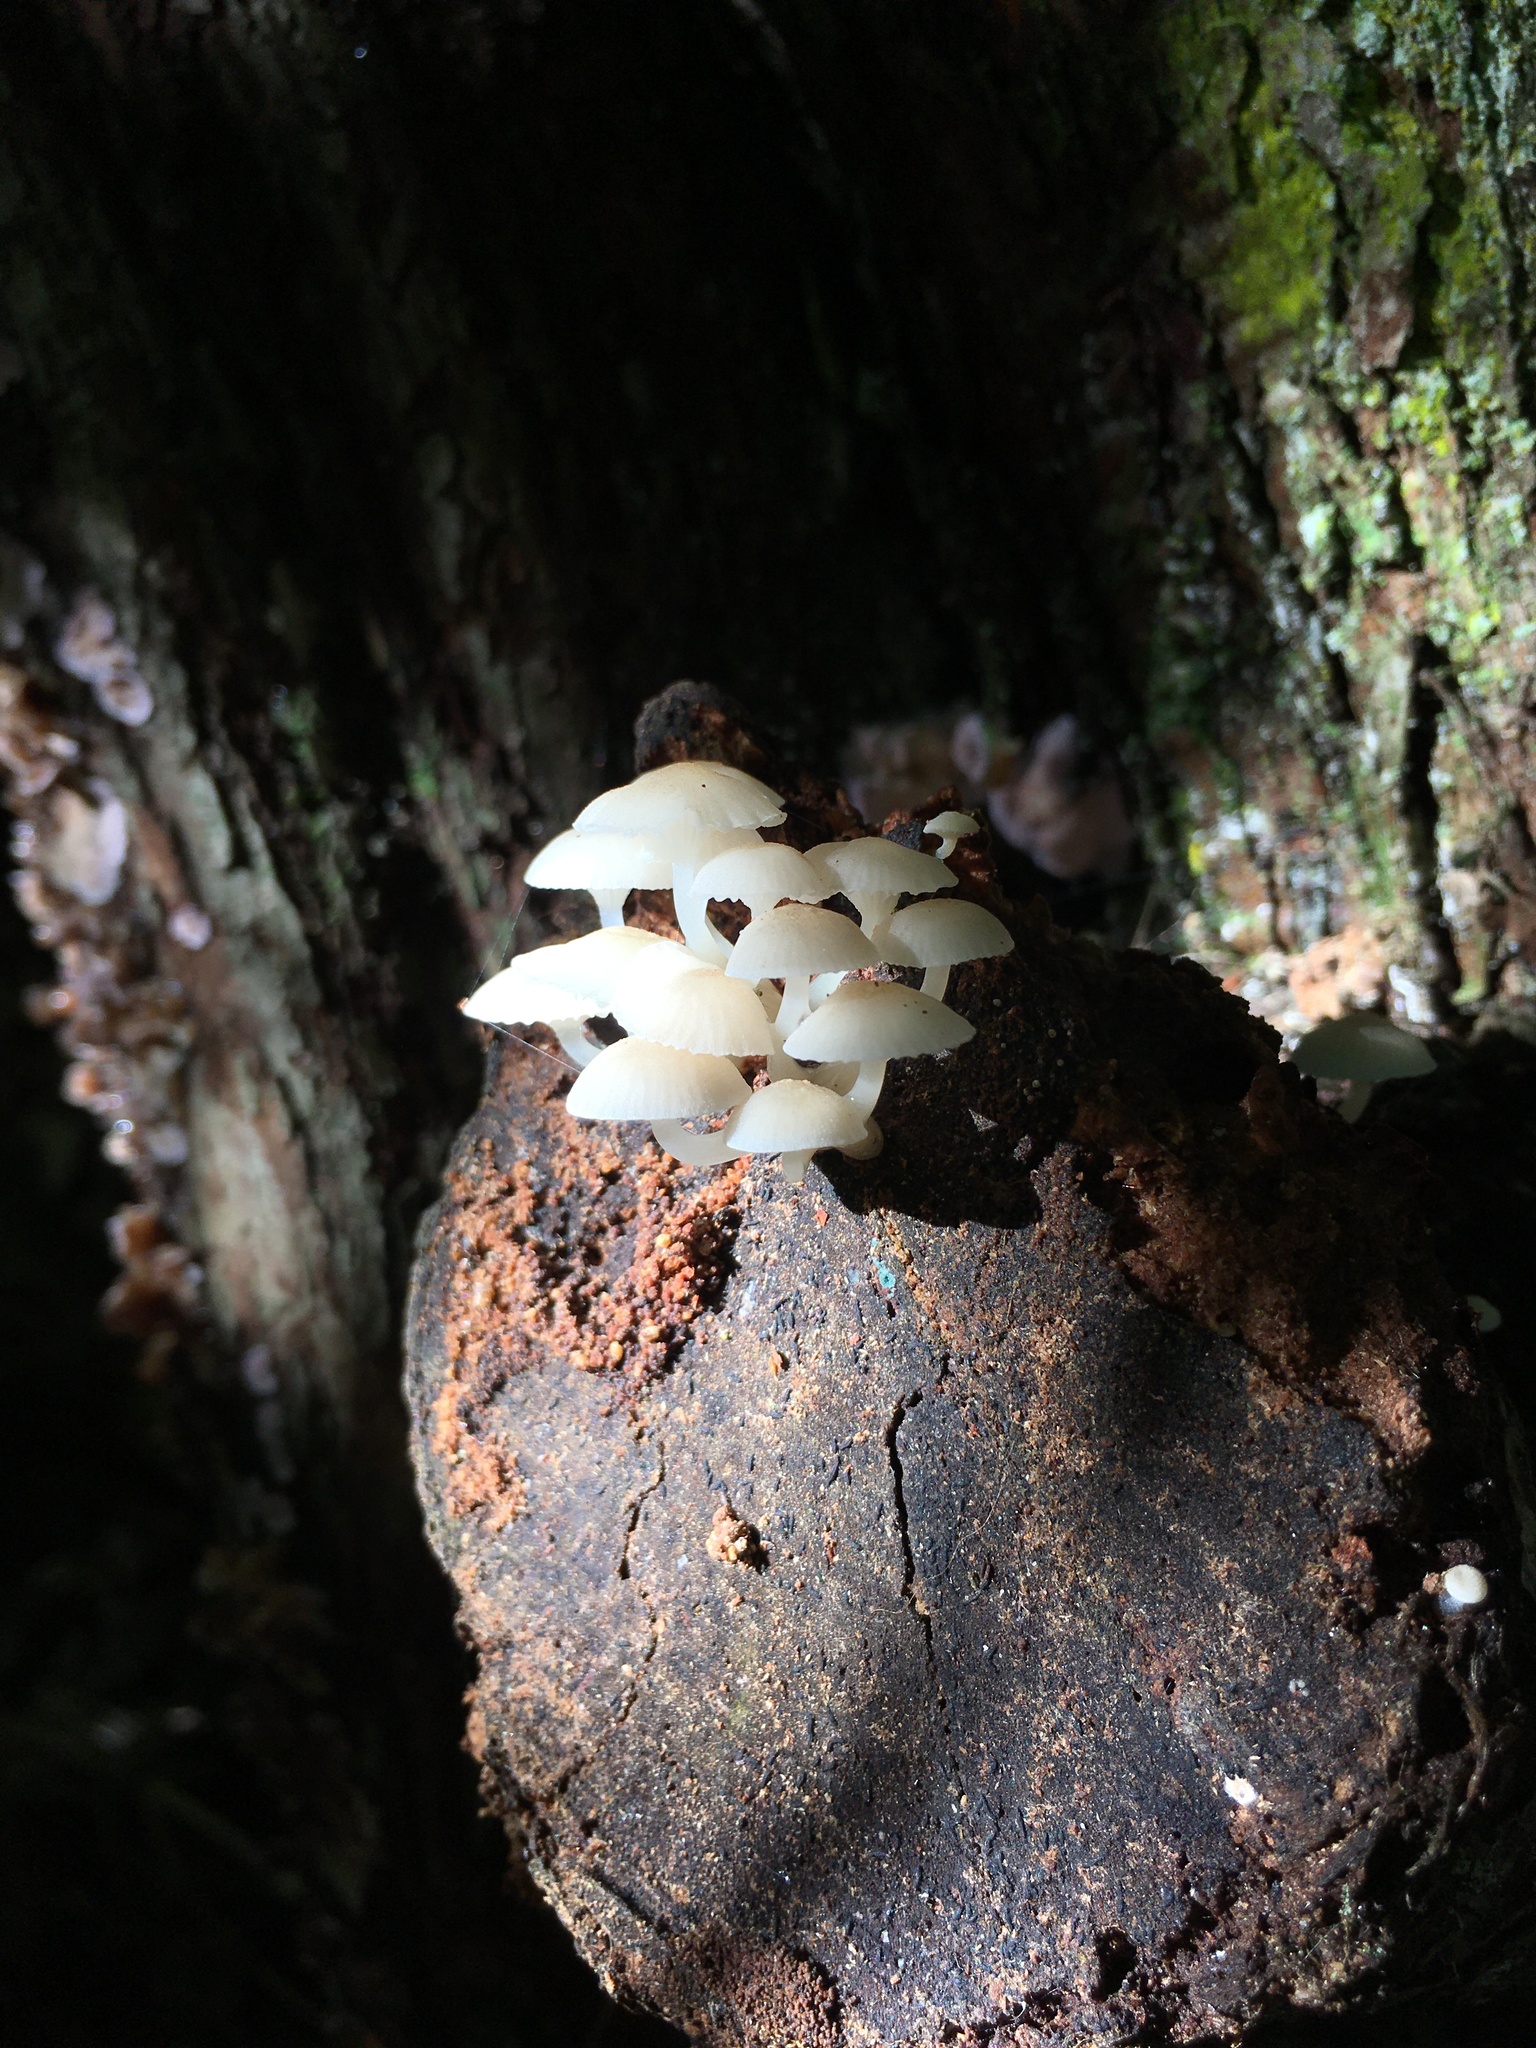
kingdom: Fungi
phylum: Basidiomycota
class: Agaricomycetes
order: Agaricales
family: Mycenaceae
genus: Roridomyces
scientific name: Roridomyces austrororidus
